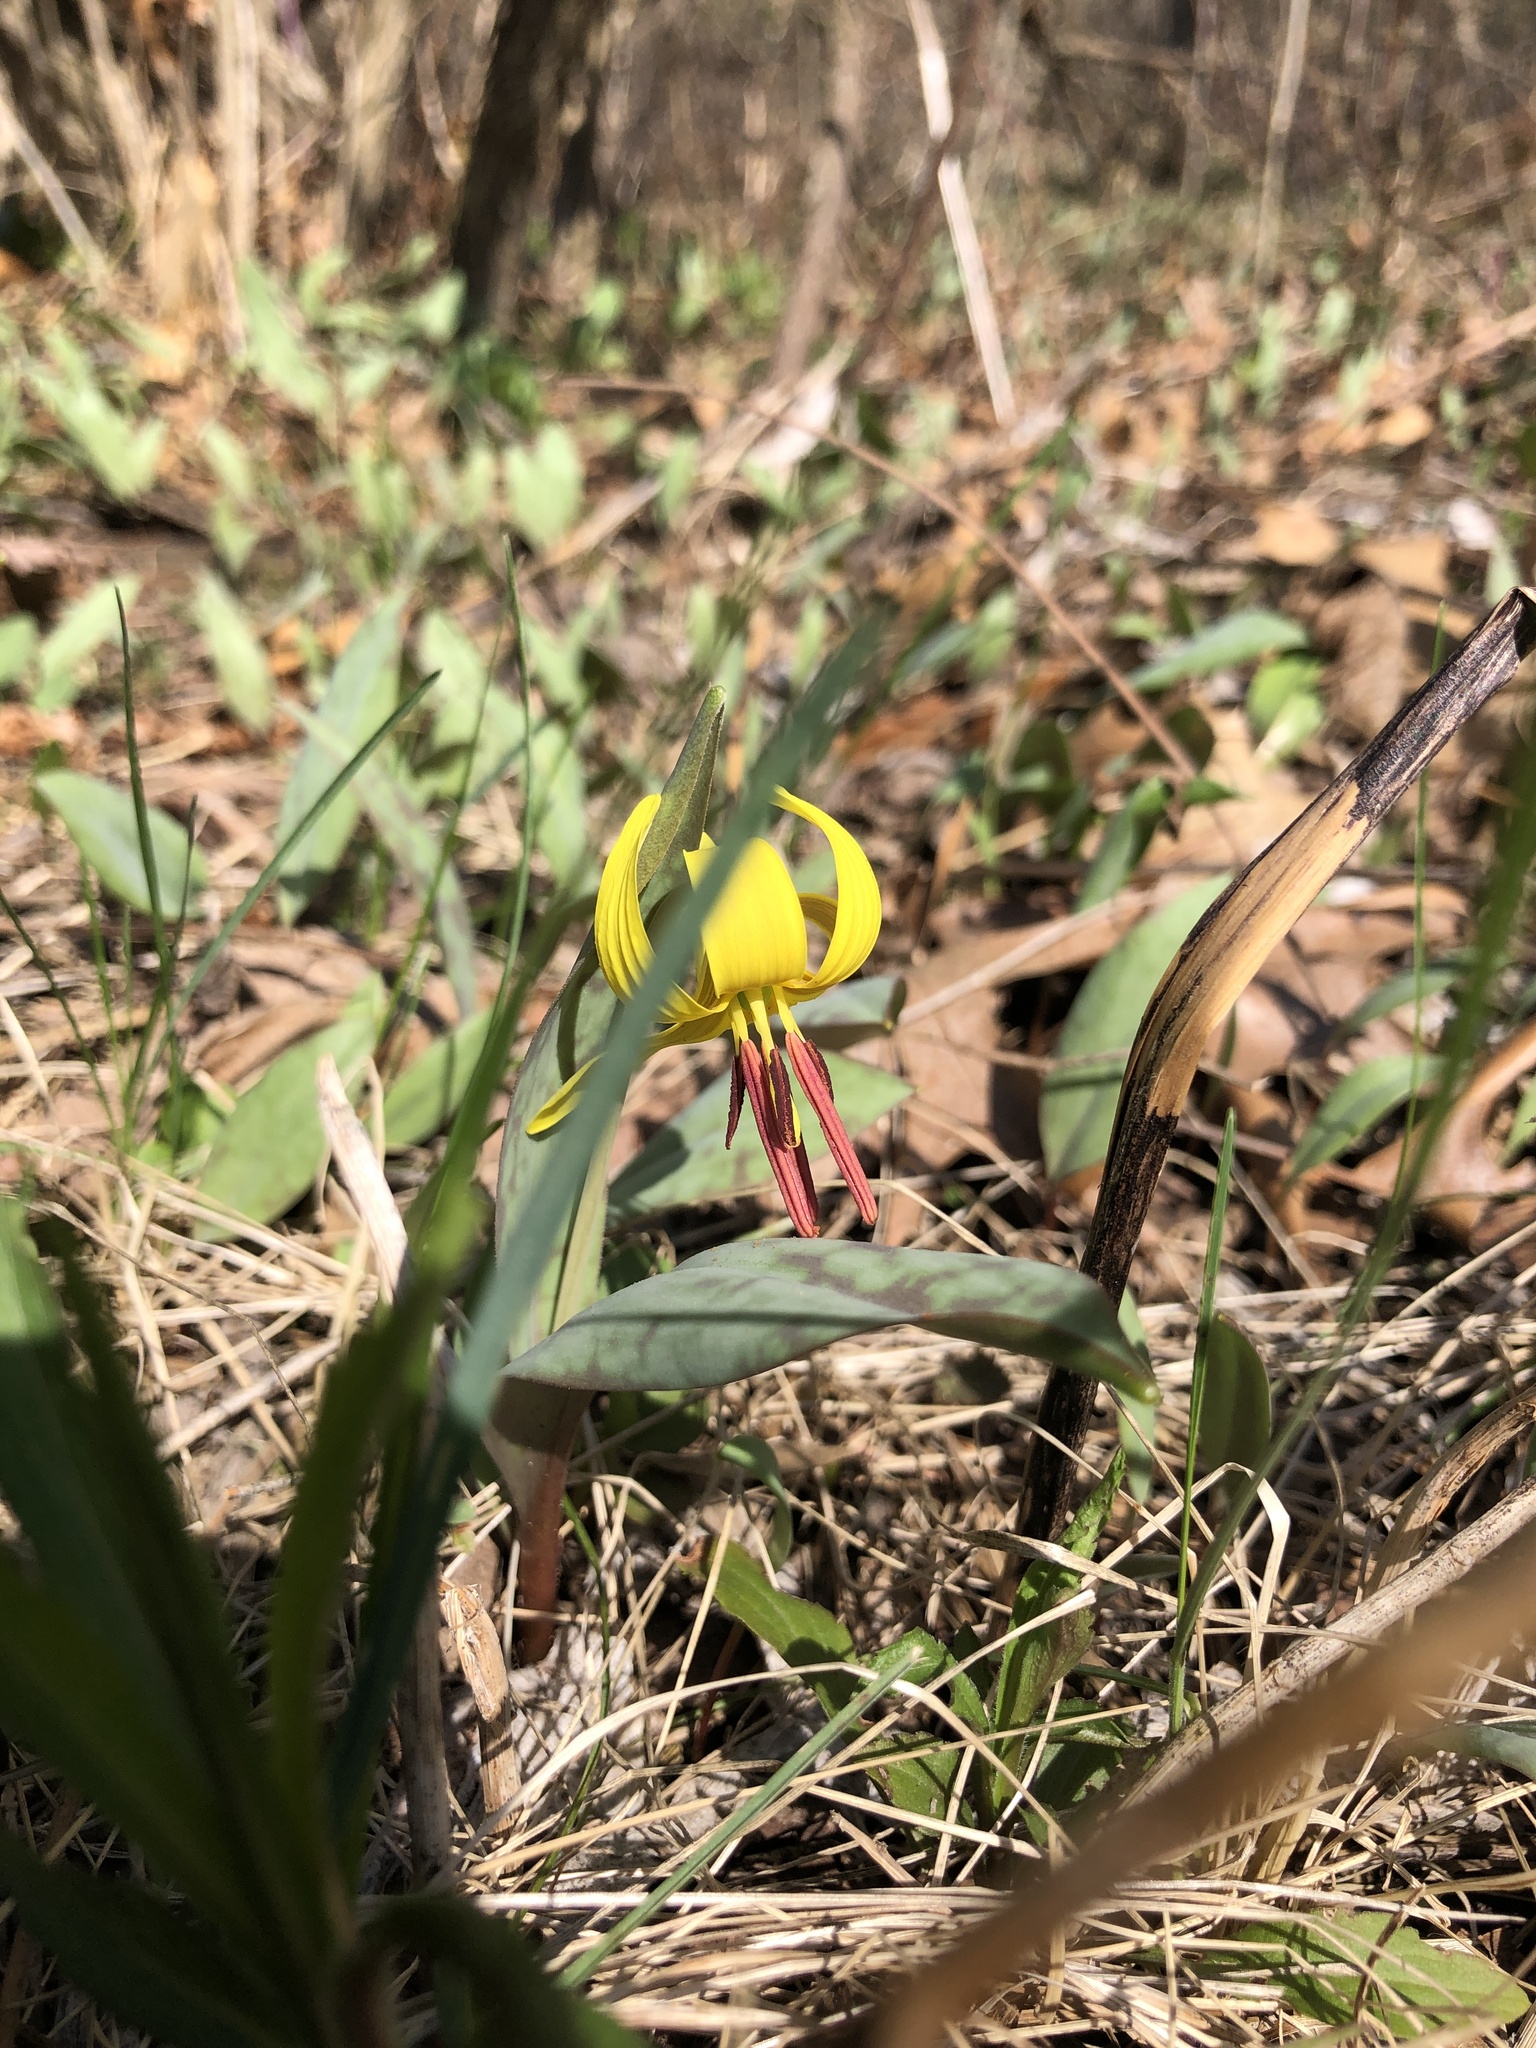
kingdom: Plantae
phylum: Tracheophyta
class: Liliopsida
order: Liliales
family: Liliaceae
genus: Erythronium
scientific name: Erythronium americanum
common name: Yellow adder's-tongue
